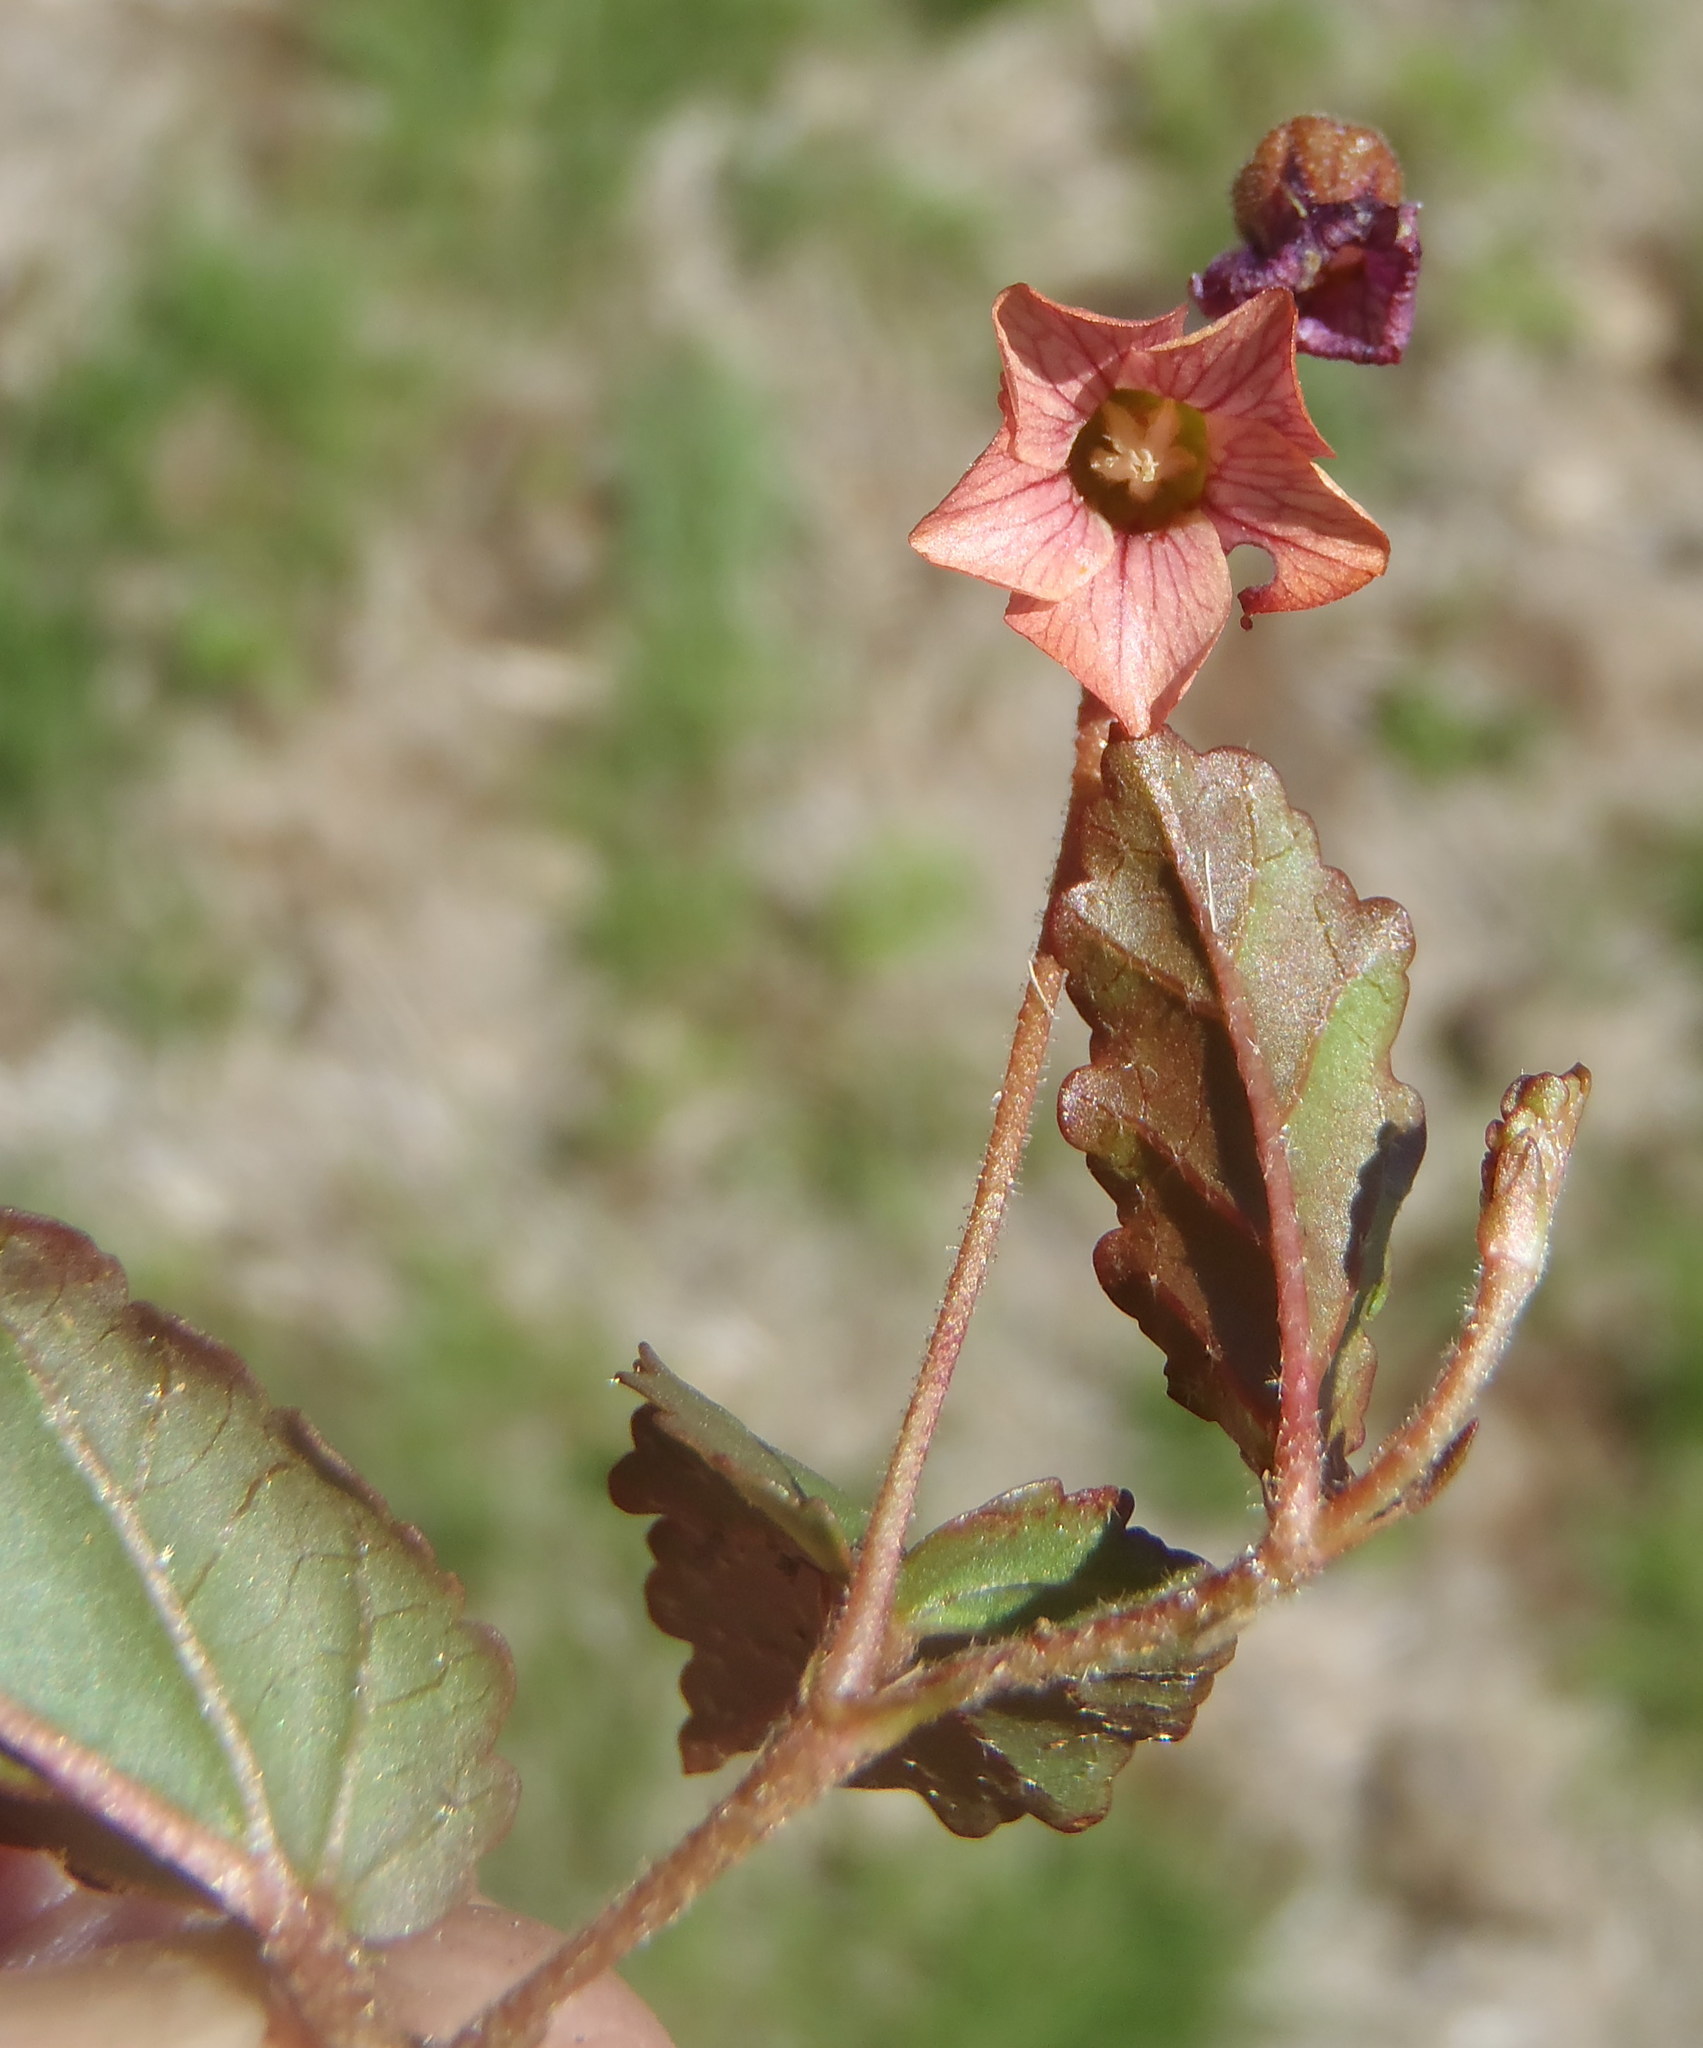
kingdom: Plantae
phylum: Tracheophyta
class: Magnoliopsida
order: Malvales
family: Malvaceae
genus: Hermannia
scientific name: Hermannia depressa
